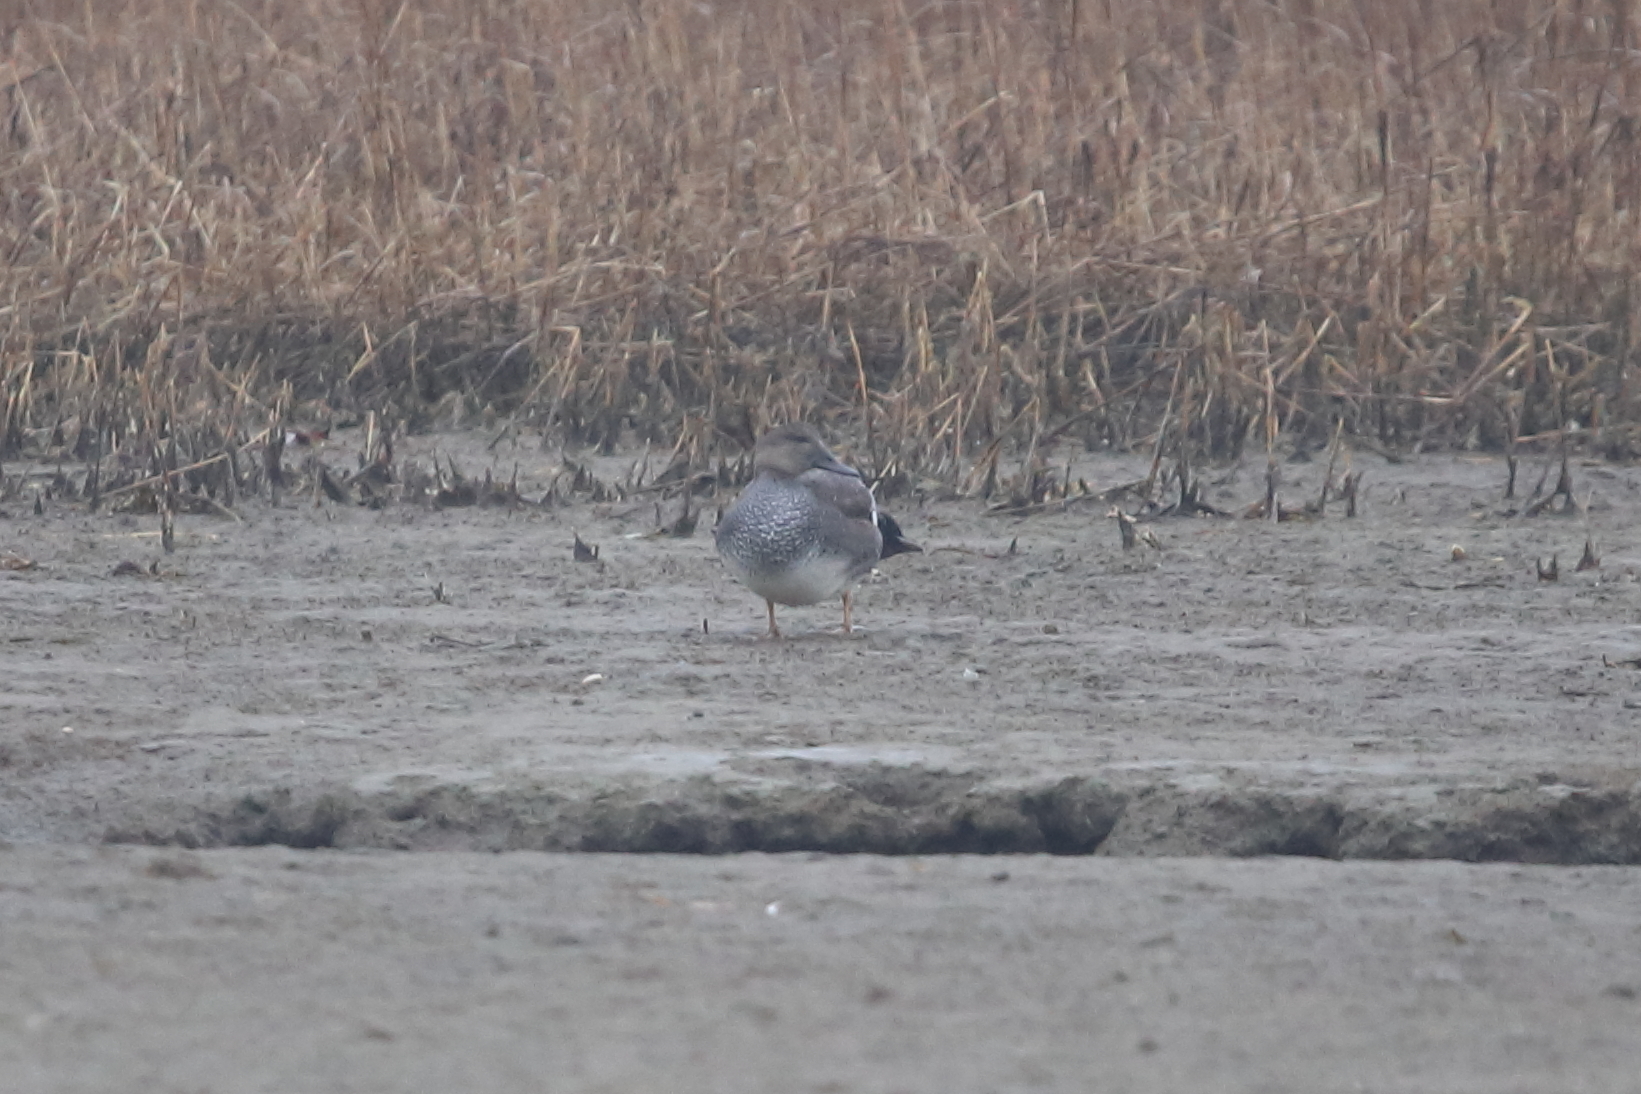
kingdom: Animalia
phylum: Chordata
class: Aves
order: Anseriformes
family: Anatidae
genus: Mareca
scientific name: Mareca strepera
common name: Gadwall
